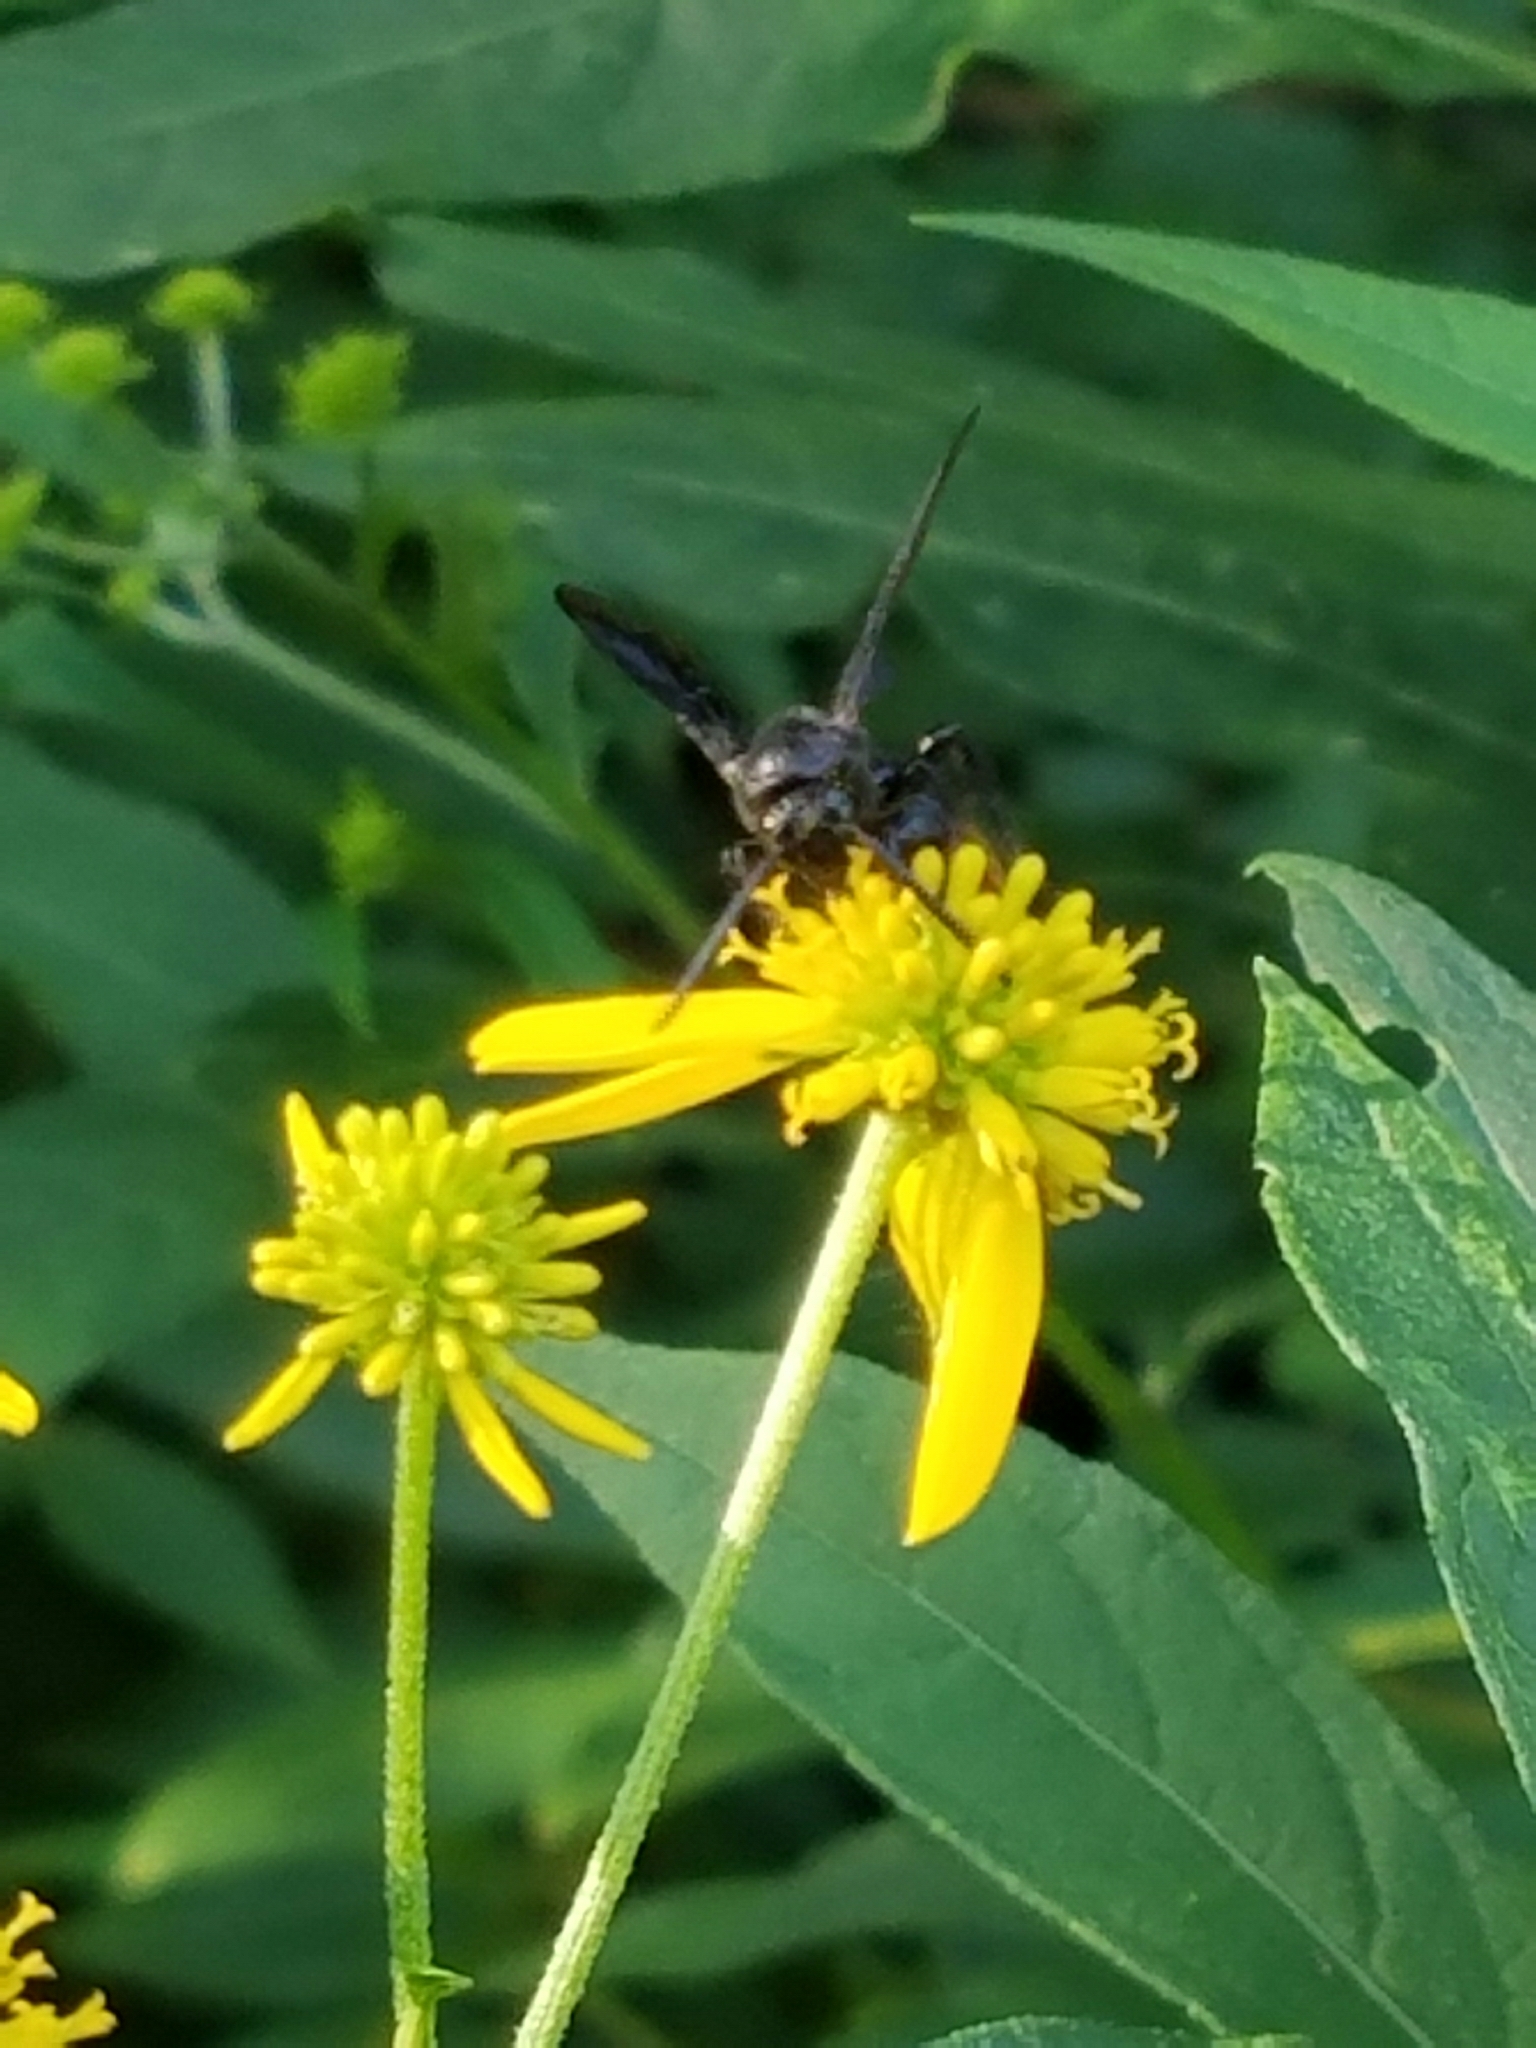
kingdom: Animalia
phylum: Arthropoda
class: Insecta
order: Hymenoptera
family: Scoliidae
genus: Scolia
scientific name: Scolia dubia
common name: Blue-winged scoliid wasp
